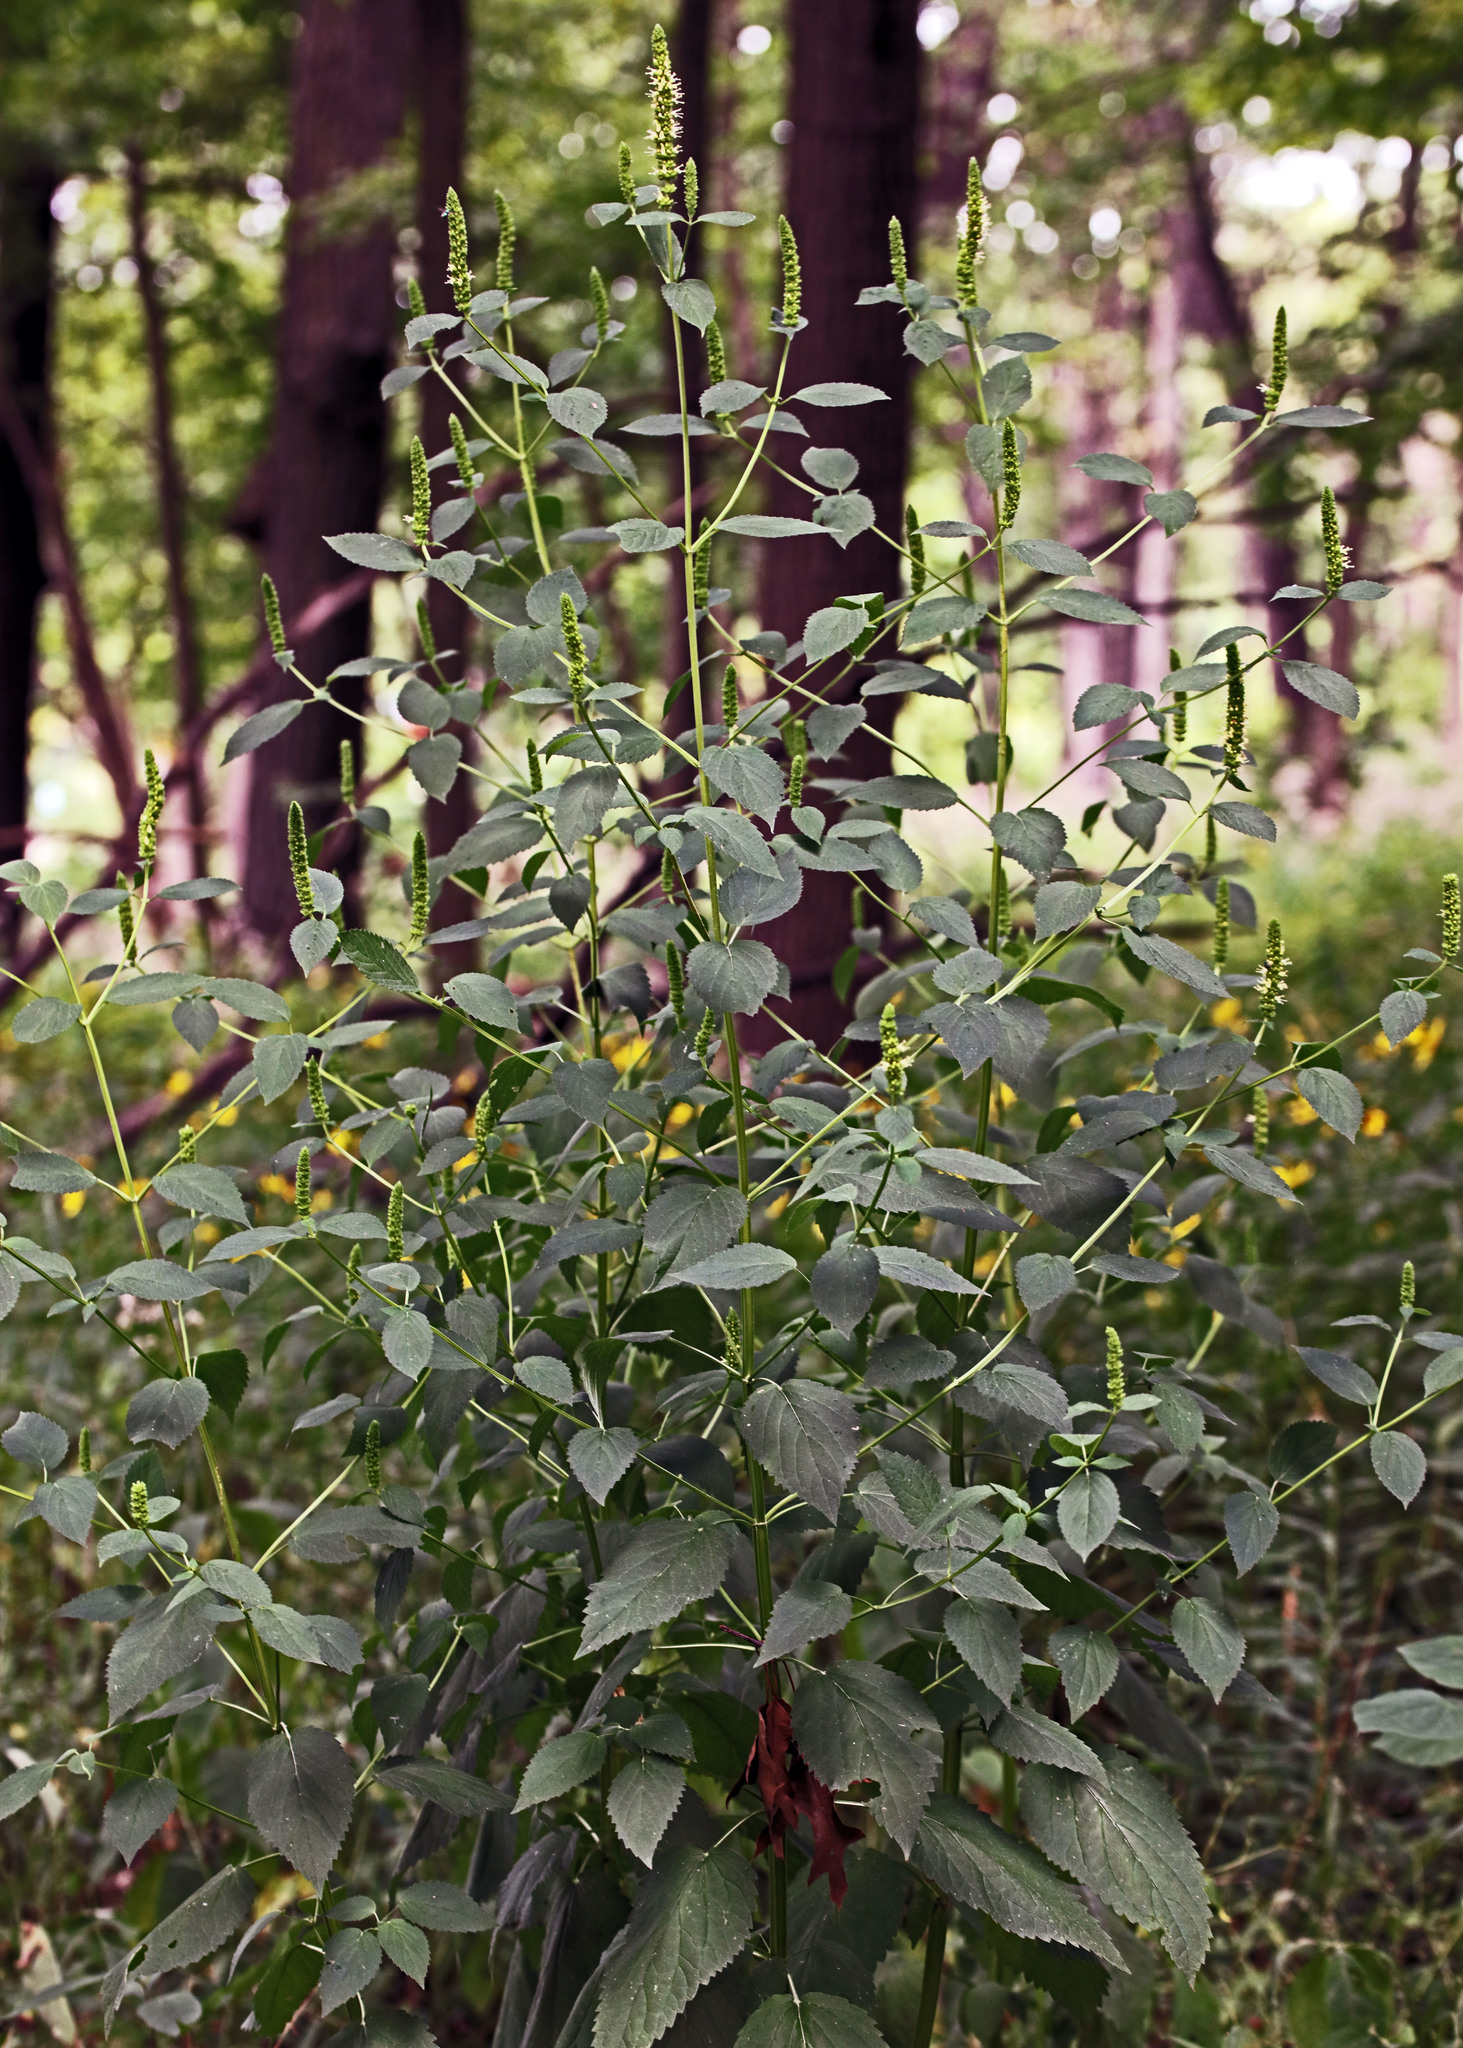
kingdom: Plantae
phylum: Tracheophyta
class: Magnoliopsida
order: Lamiales
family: Lamiaceae
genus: Agastache
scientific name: Agastache nepetoides
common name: Catnip giant hyssop
